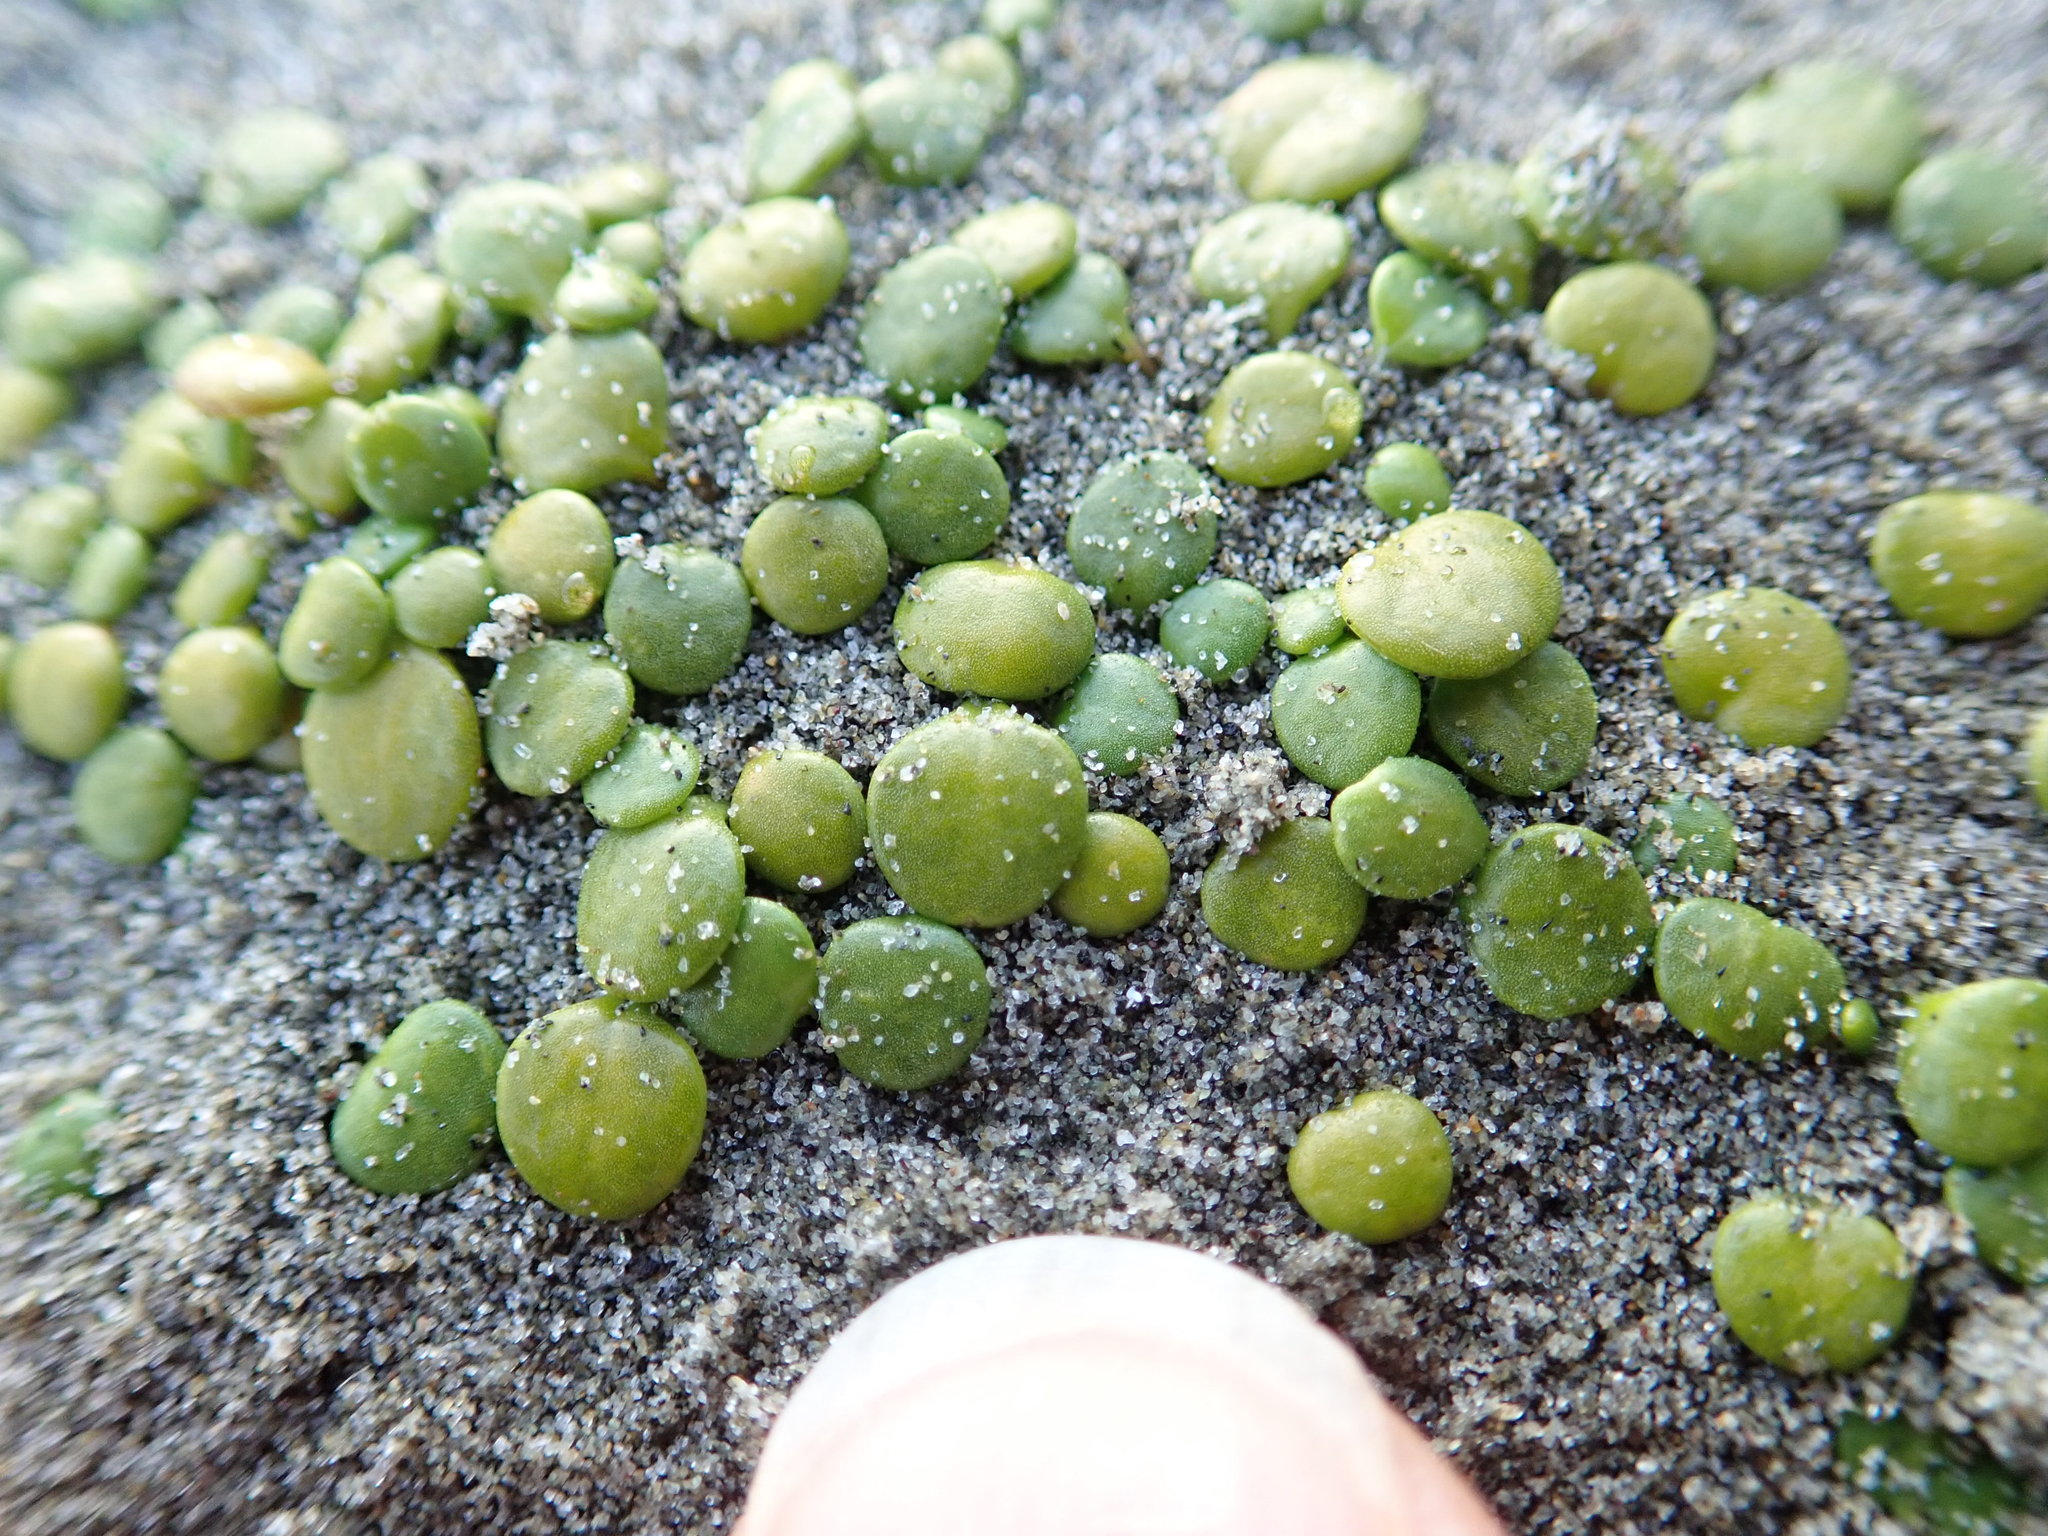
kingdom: Plantae
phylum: Tracheophyta
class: Magnoliopsida
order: Asterales
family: Goodeniaceae
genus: Goodenia
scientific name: Goodenia heenanii
